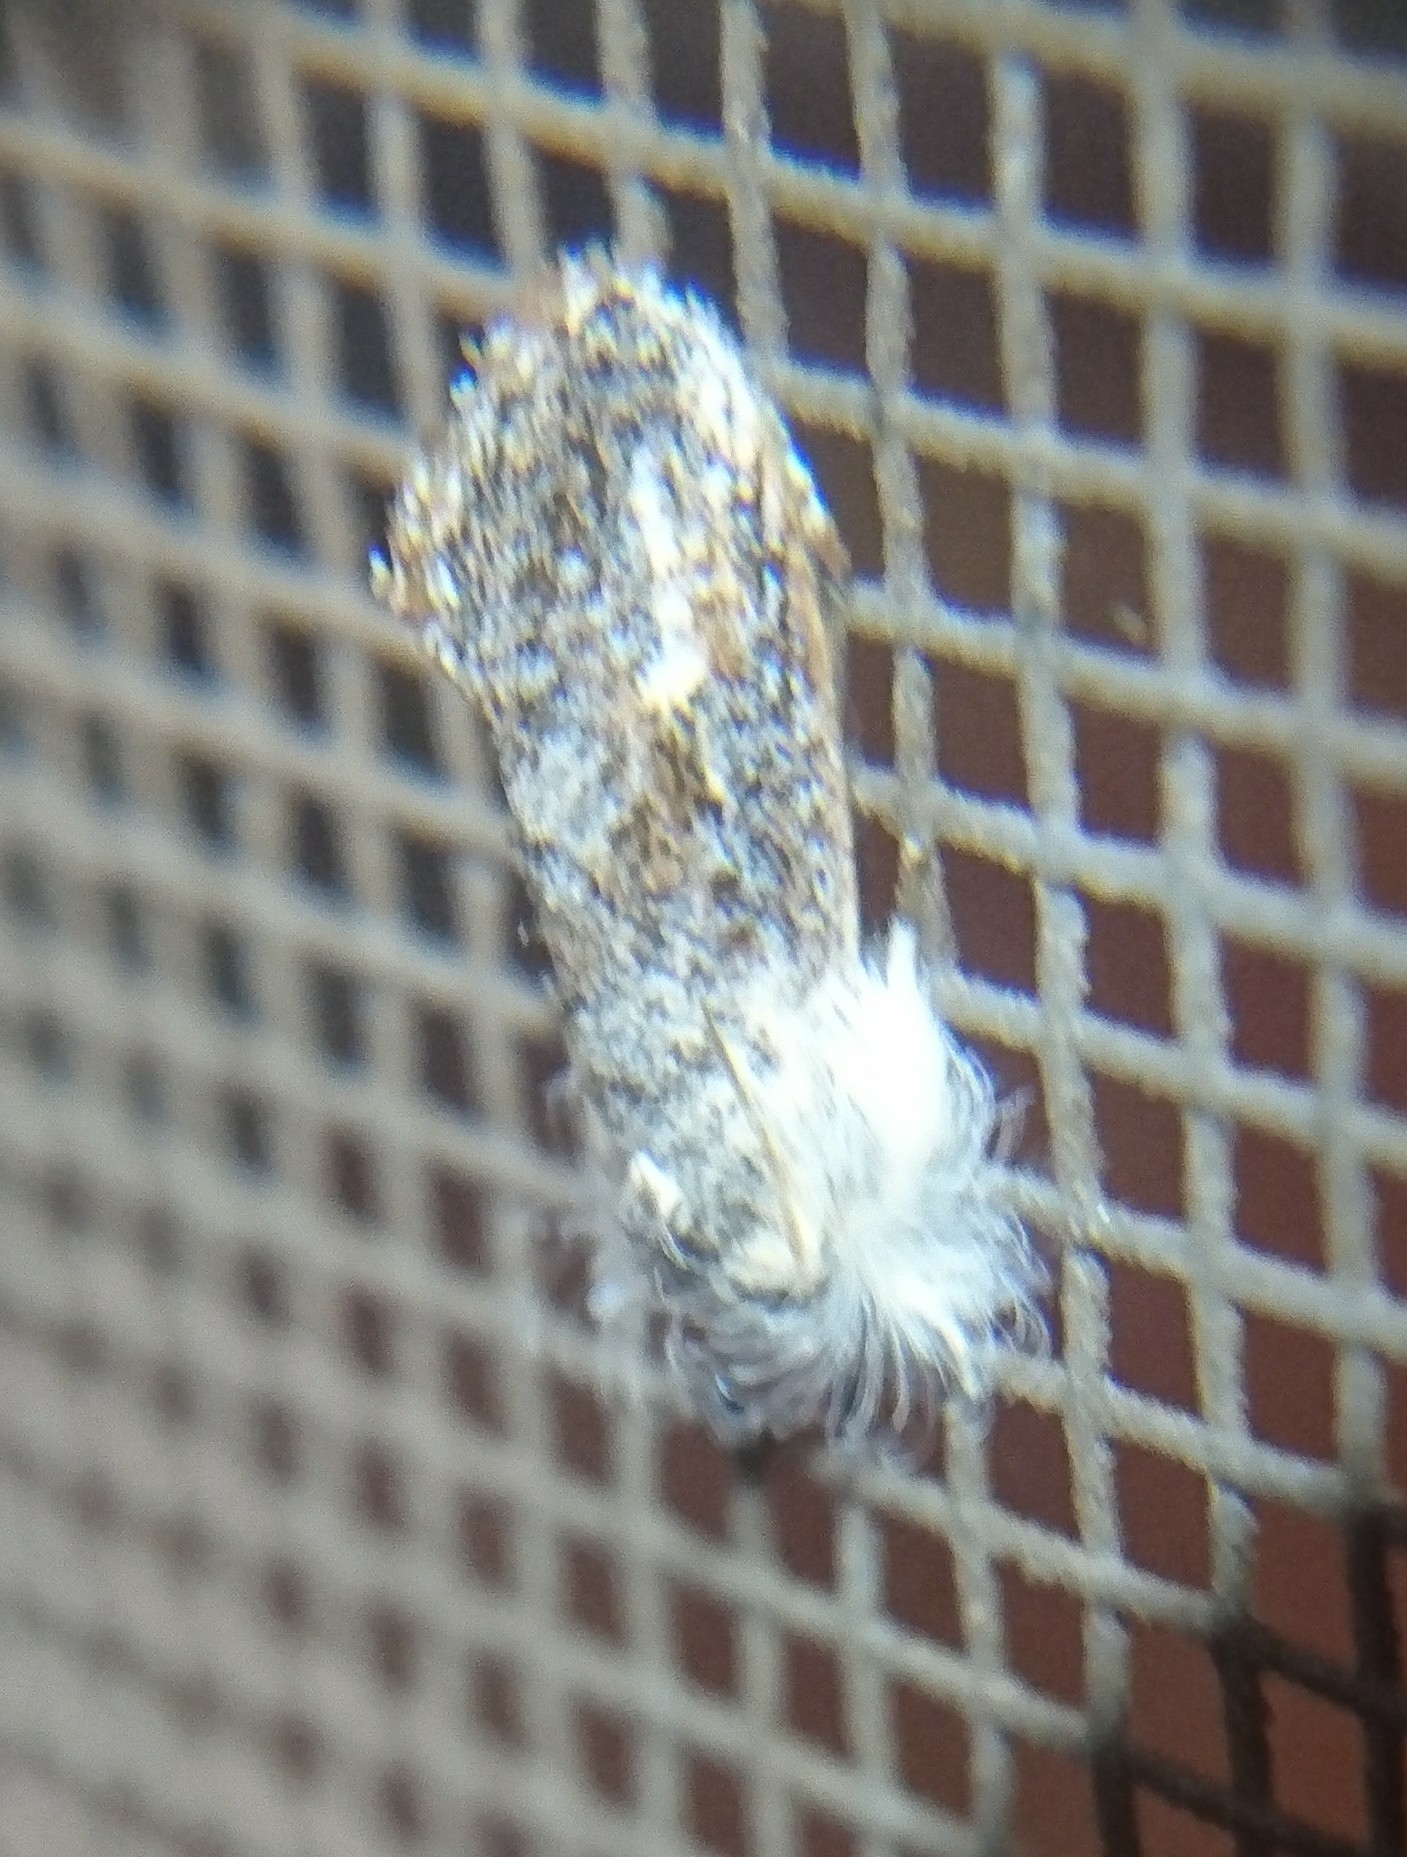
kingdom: Animalia
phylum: Arthropoda
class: Insecta
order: Lepidoptera
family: Tineidae
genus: Acrolophus
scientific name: Acrolophus mycetophagus
